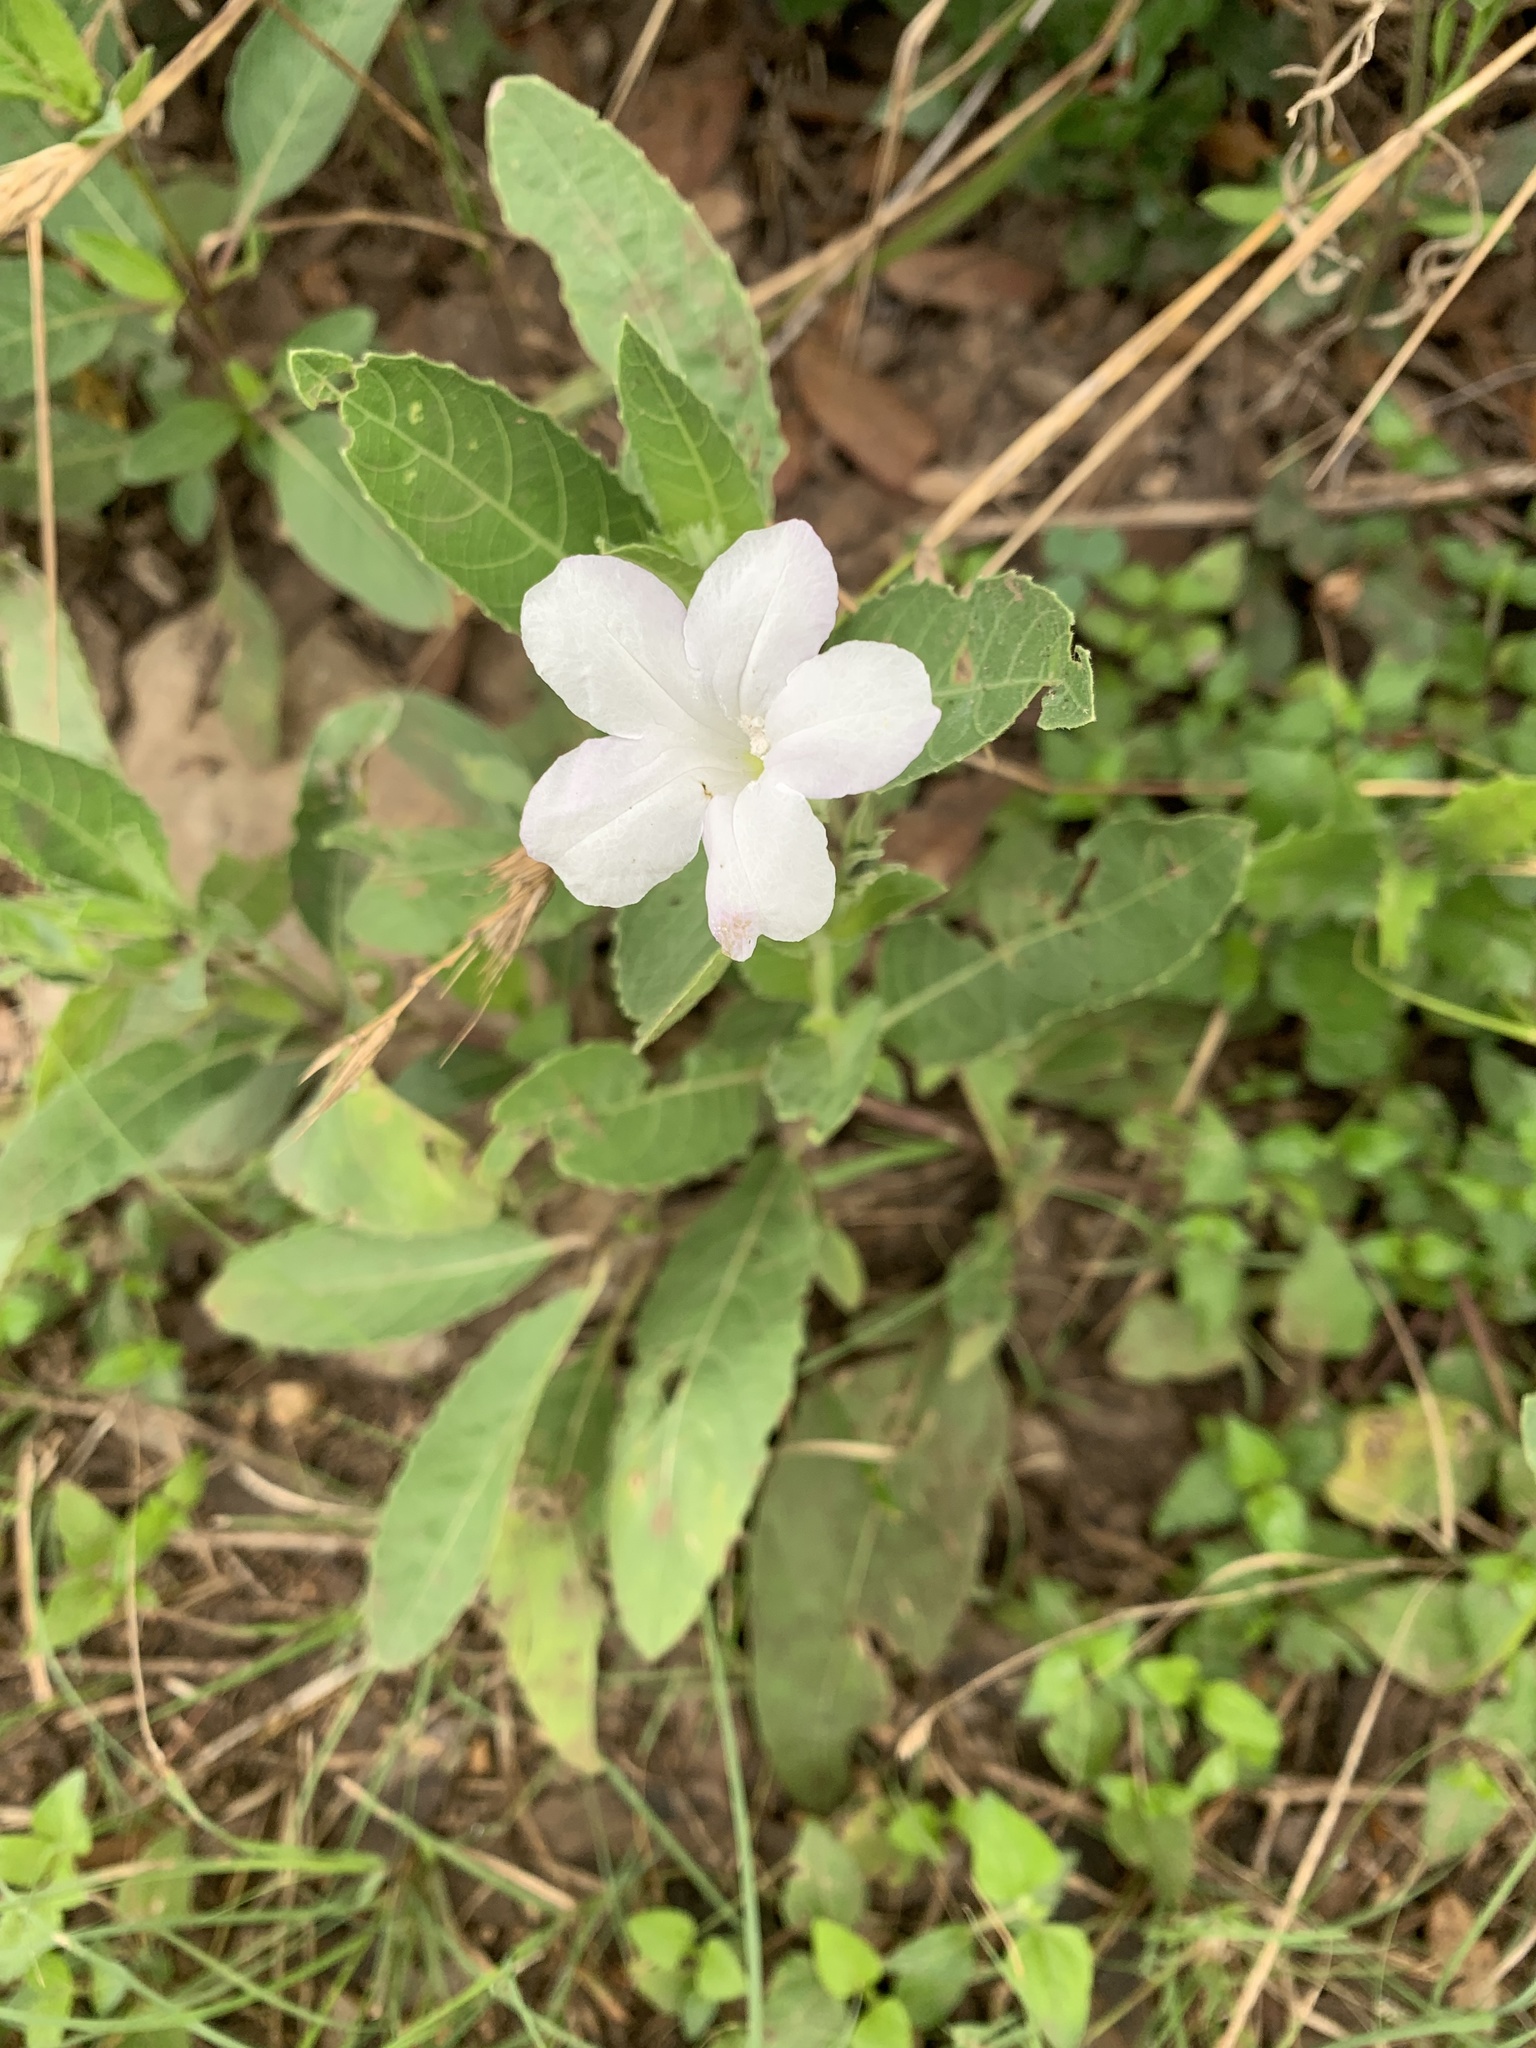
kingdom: Plantae
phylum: Tracheophyta
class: Magnoliopsida
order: Lamiales
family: Acanthaceae
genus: Ruellia
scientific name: Ruellia metziae
